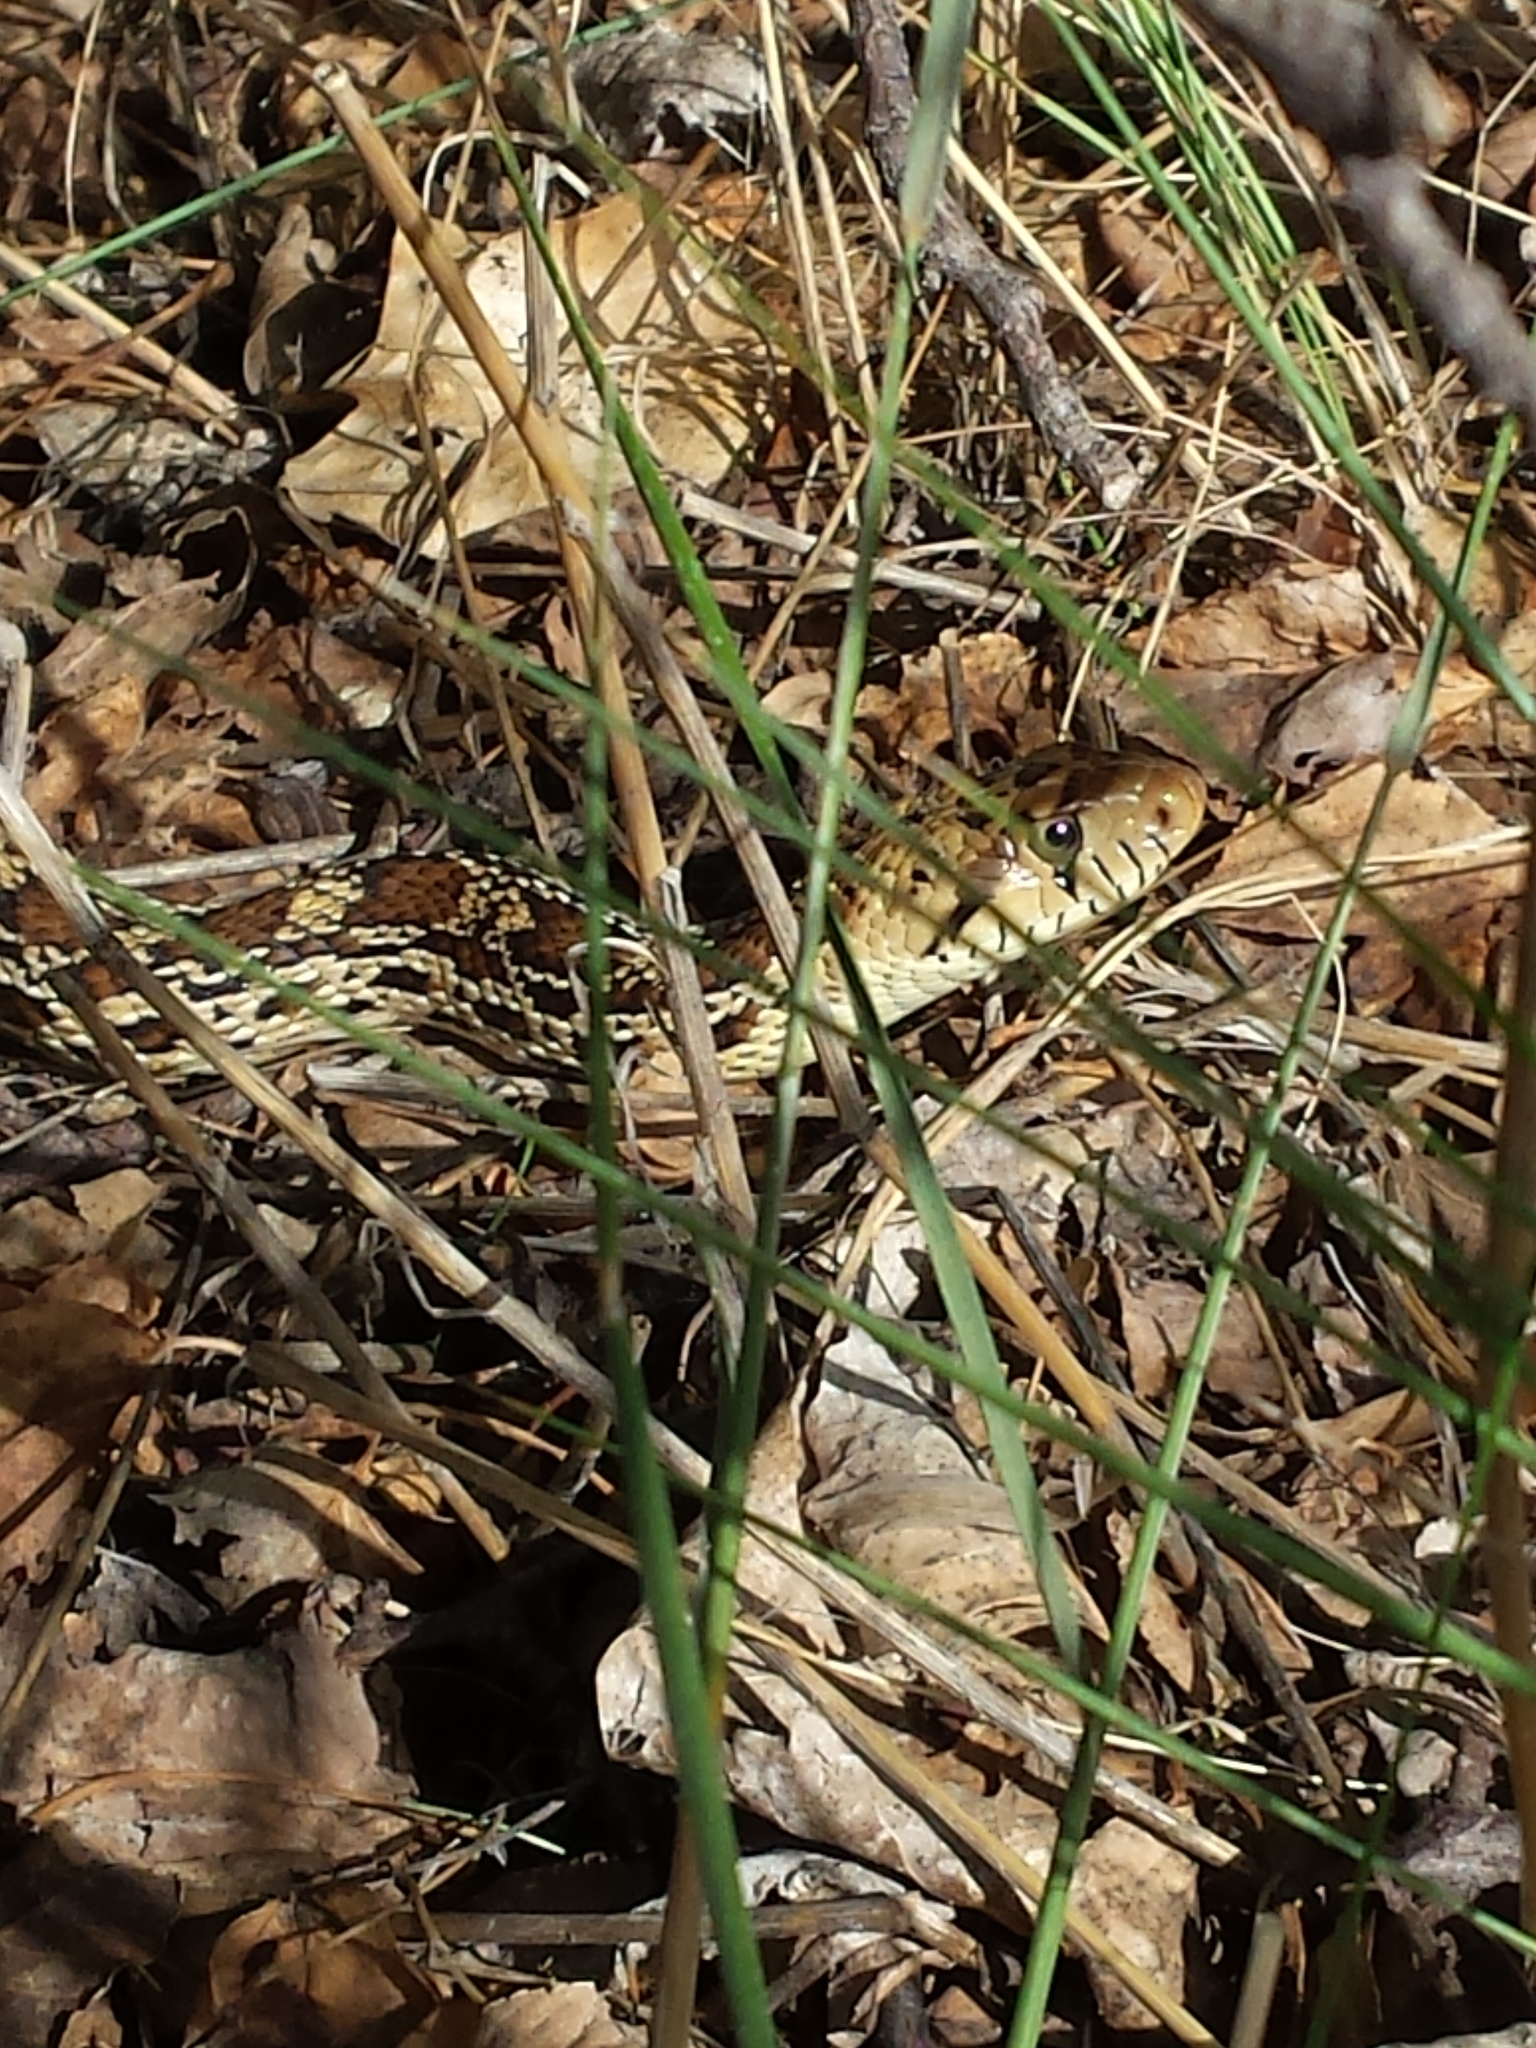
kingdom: Animalia
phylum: Chordata
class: Squamata
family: Colubridae
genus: Pituophis
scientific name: Pituophis catenifer
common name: Gopher snake
